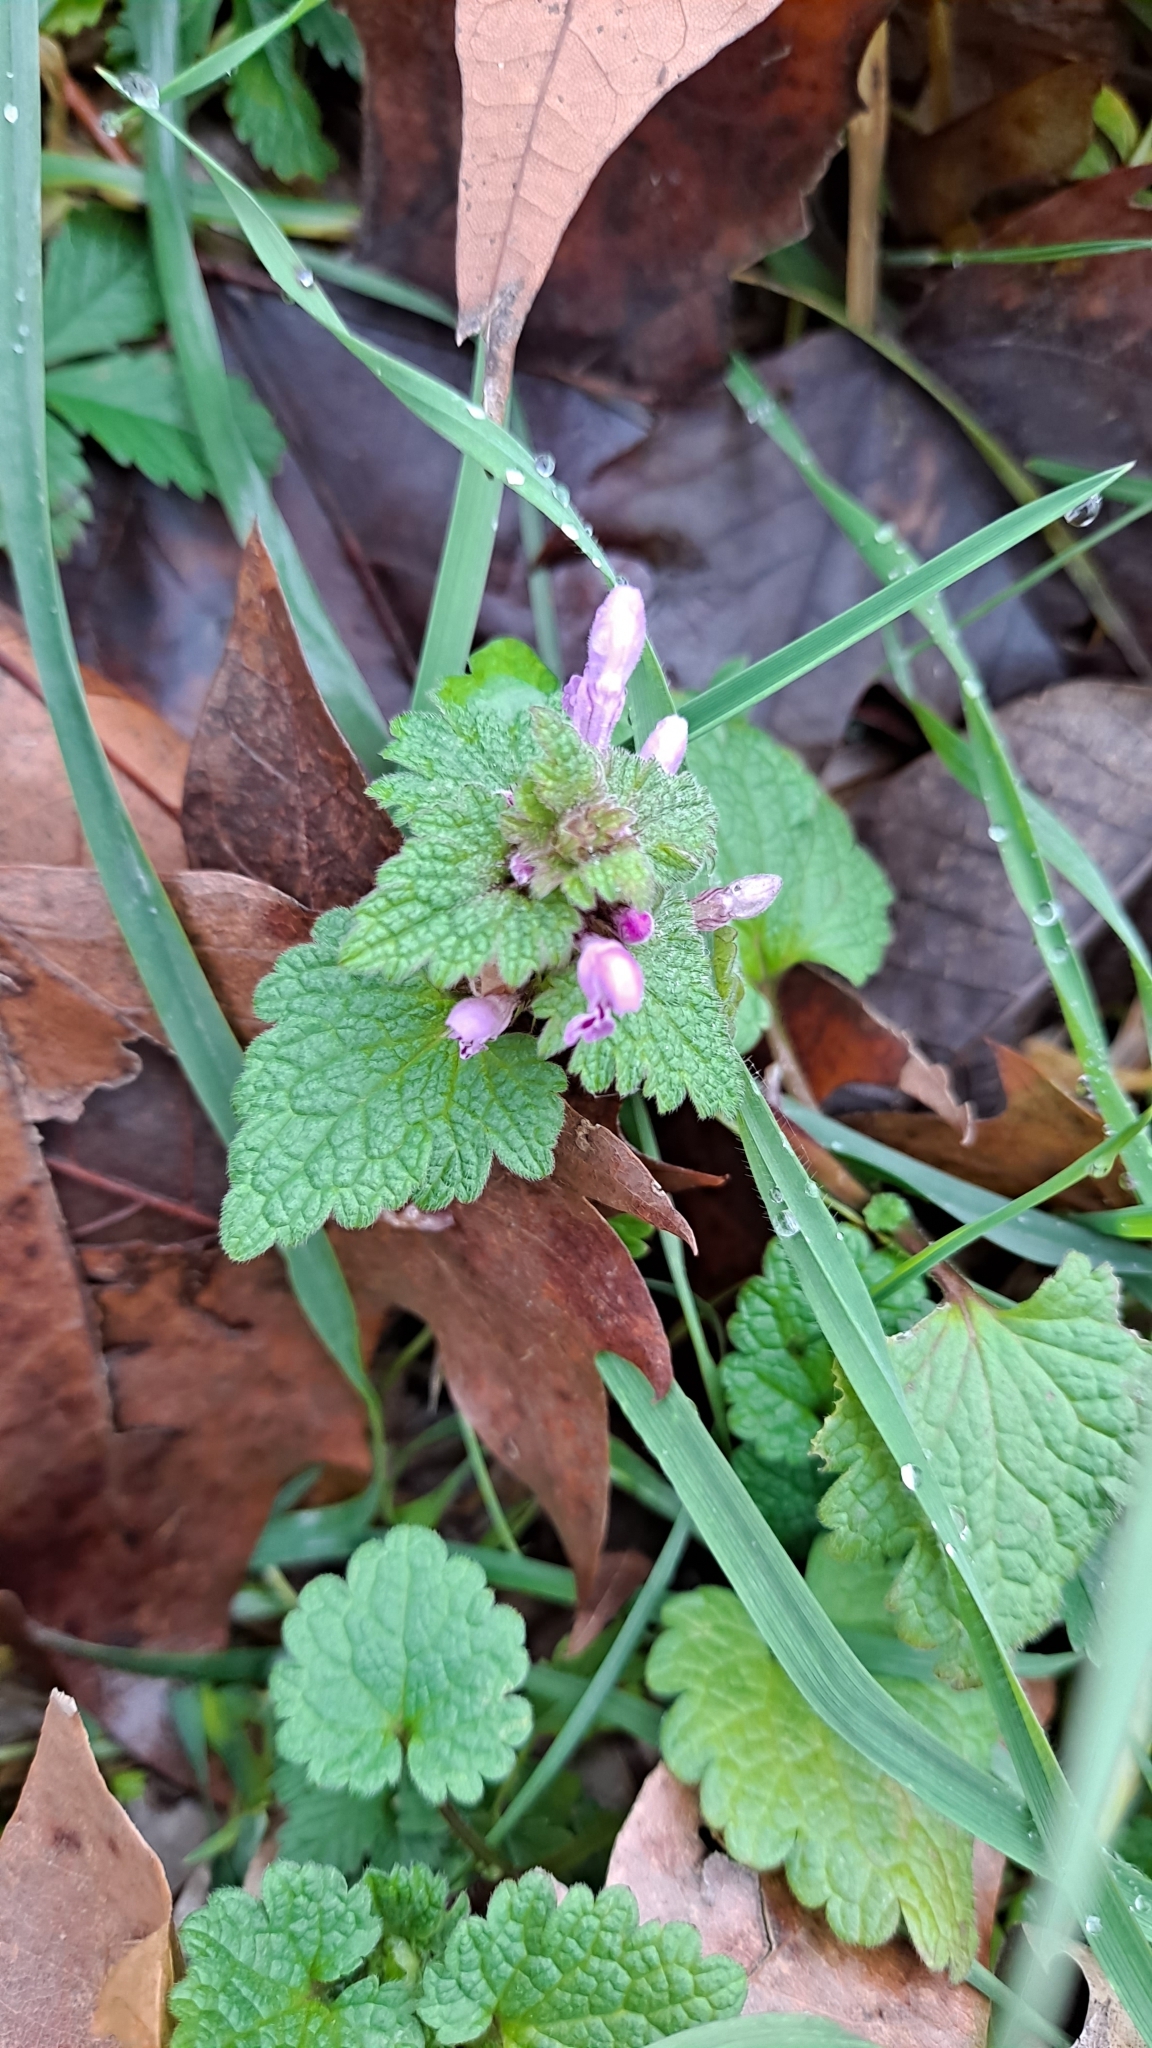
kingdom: Plantae
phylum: Tracheophyta
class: Magnoliopsida
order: Lamiales
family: Lamiaceae
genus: Lamium
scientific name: Lamium purpureum
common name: Red dead-nettle
